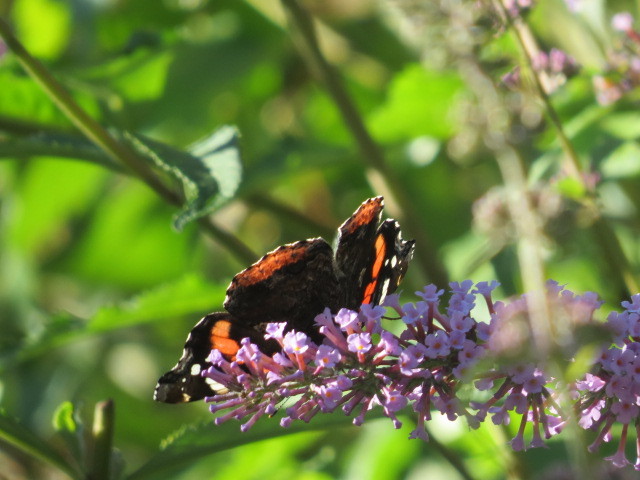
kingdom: Animalia
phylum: Arthropoda
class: Insecta
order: Lepidoptera
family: Nymphalidae
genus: Vanessa
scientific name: Vanessa atalanta
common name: Red admiral
